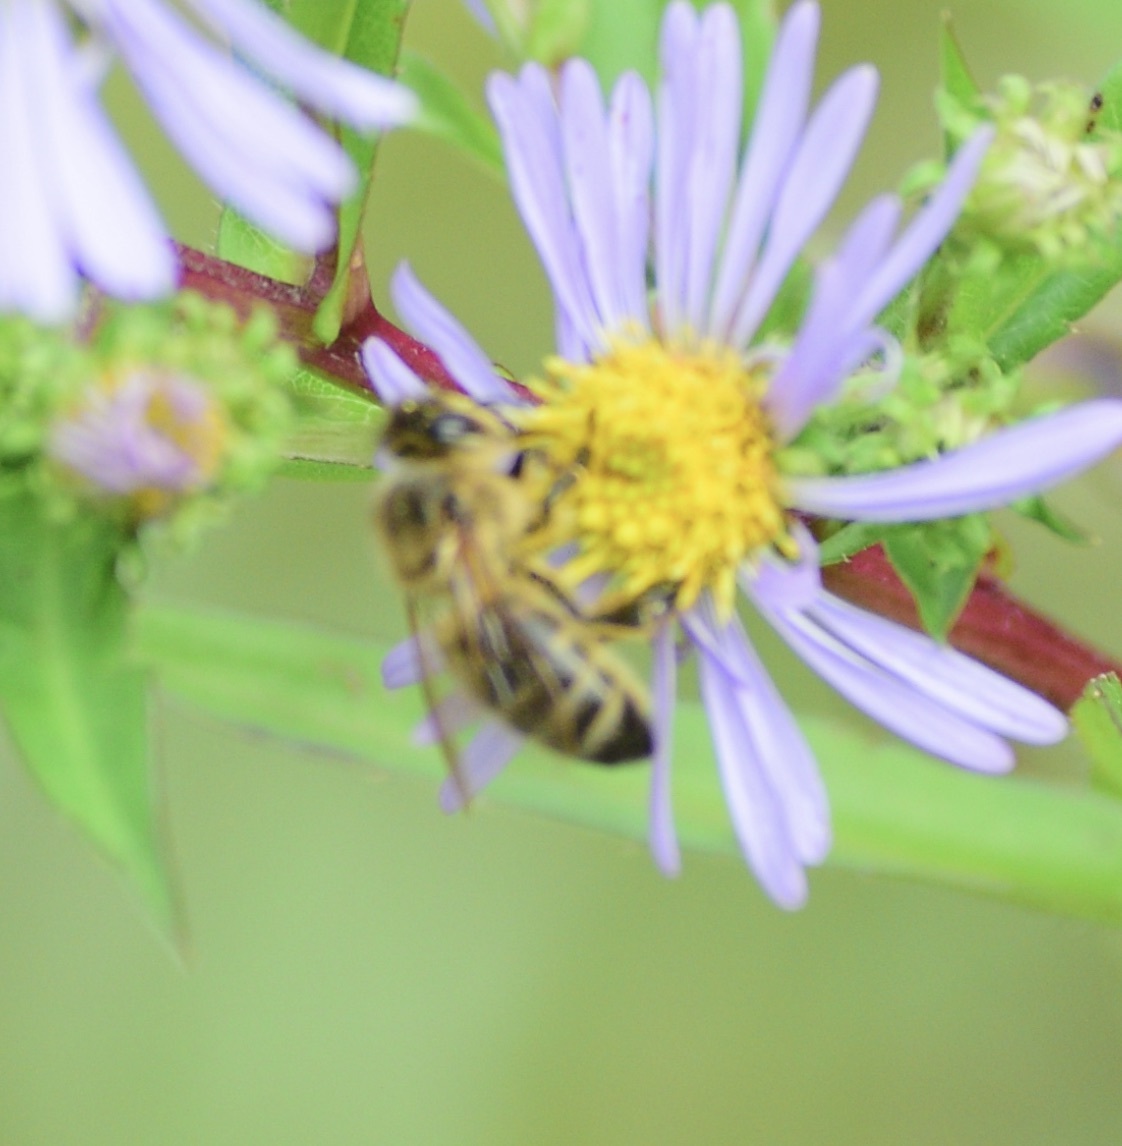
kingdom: Animalia
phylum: Arthropoda
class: Insecta
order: Hymenoptera
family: Apidae
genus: Apis
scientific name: Apis mellifera
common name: Honey bee
